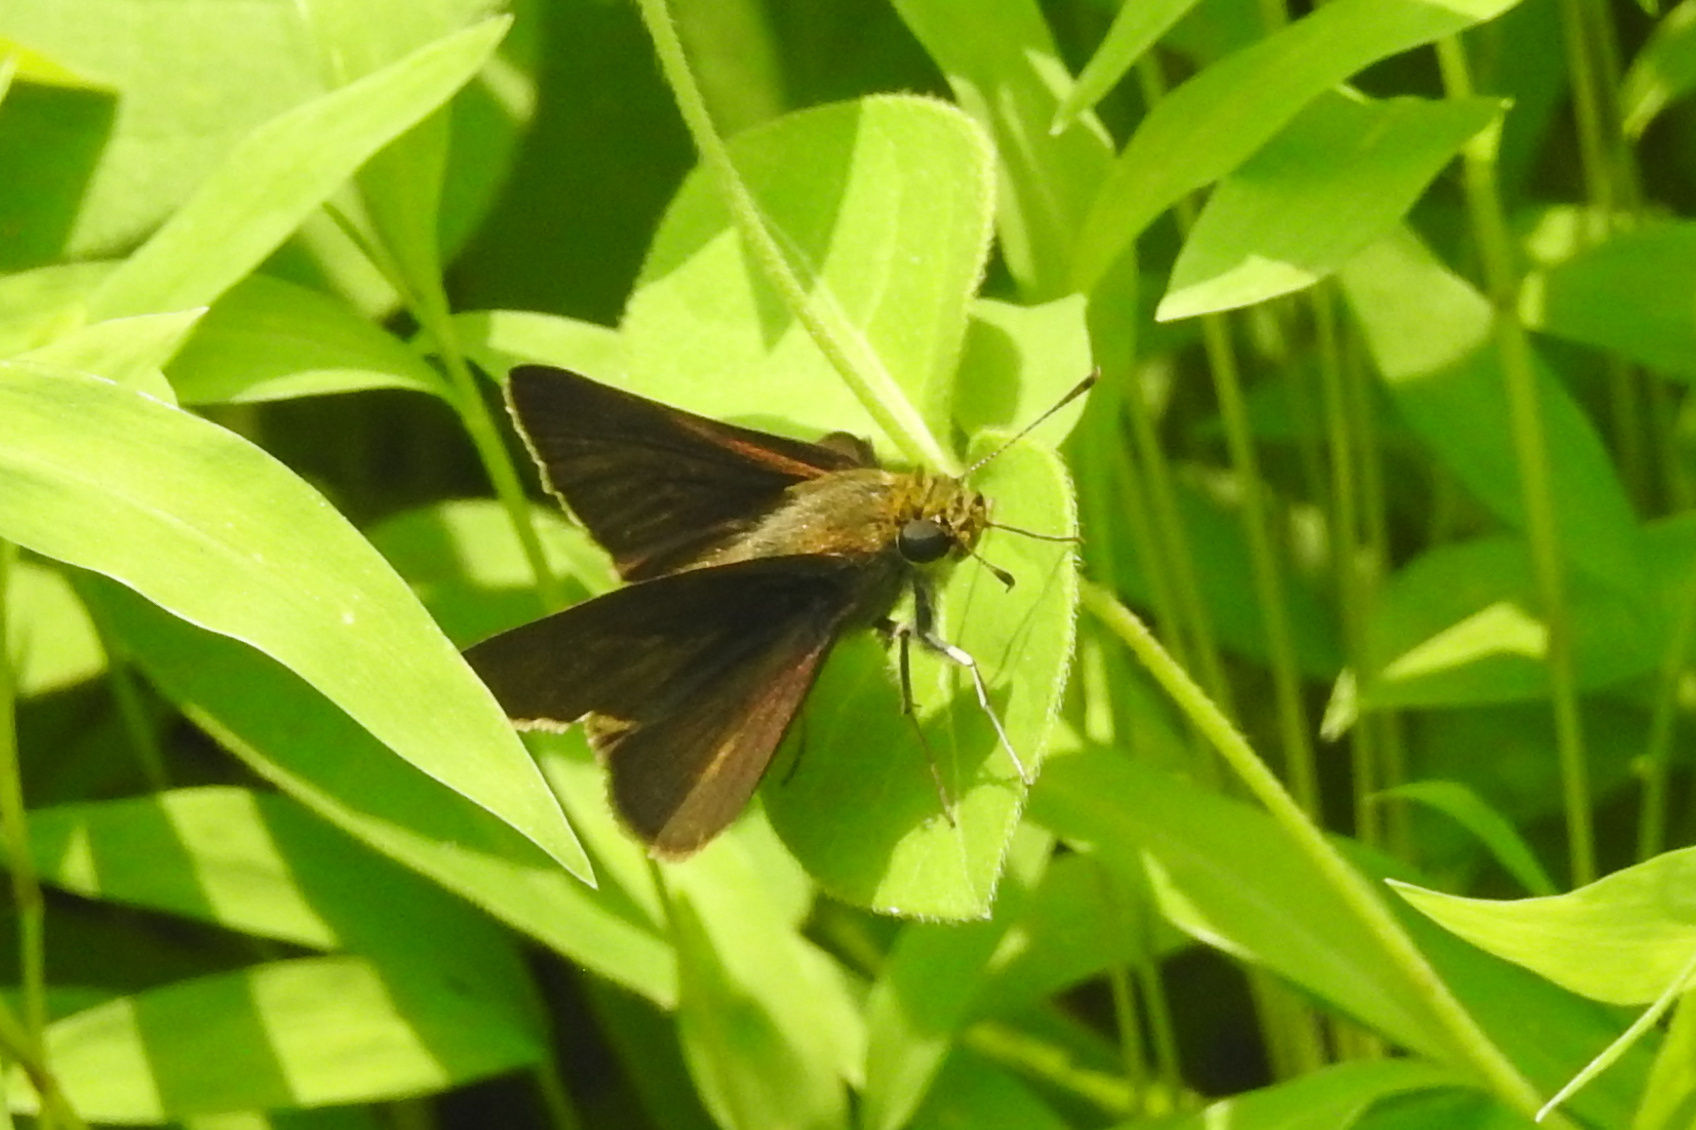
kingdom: Animalia
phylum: Arthropoda
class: Insecta
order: Lepidoptera
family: Hesperiidae
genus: Euphyes
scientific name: Euphyes vestris
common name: Dun skipper
